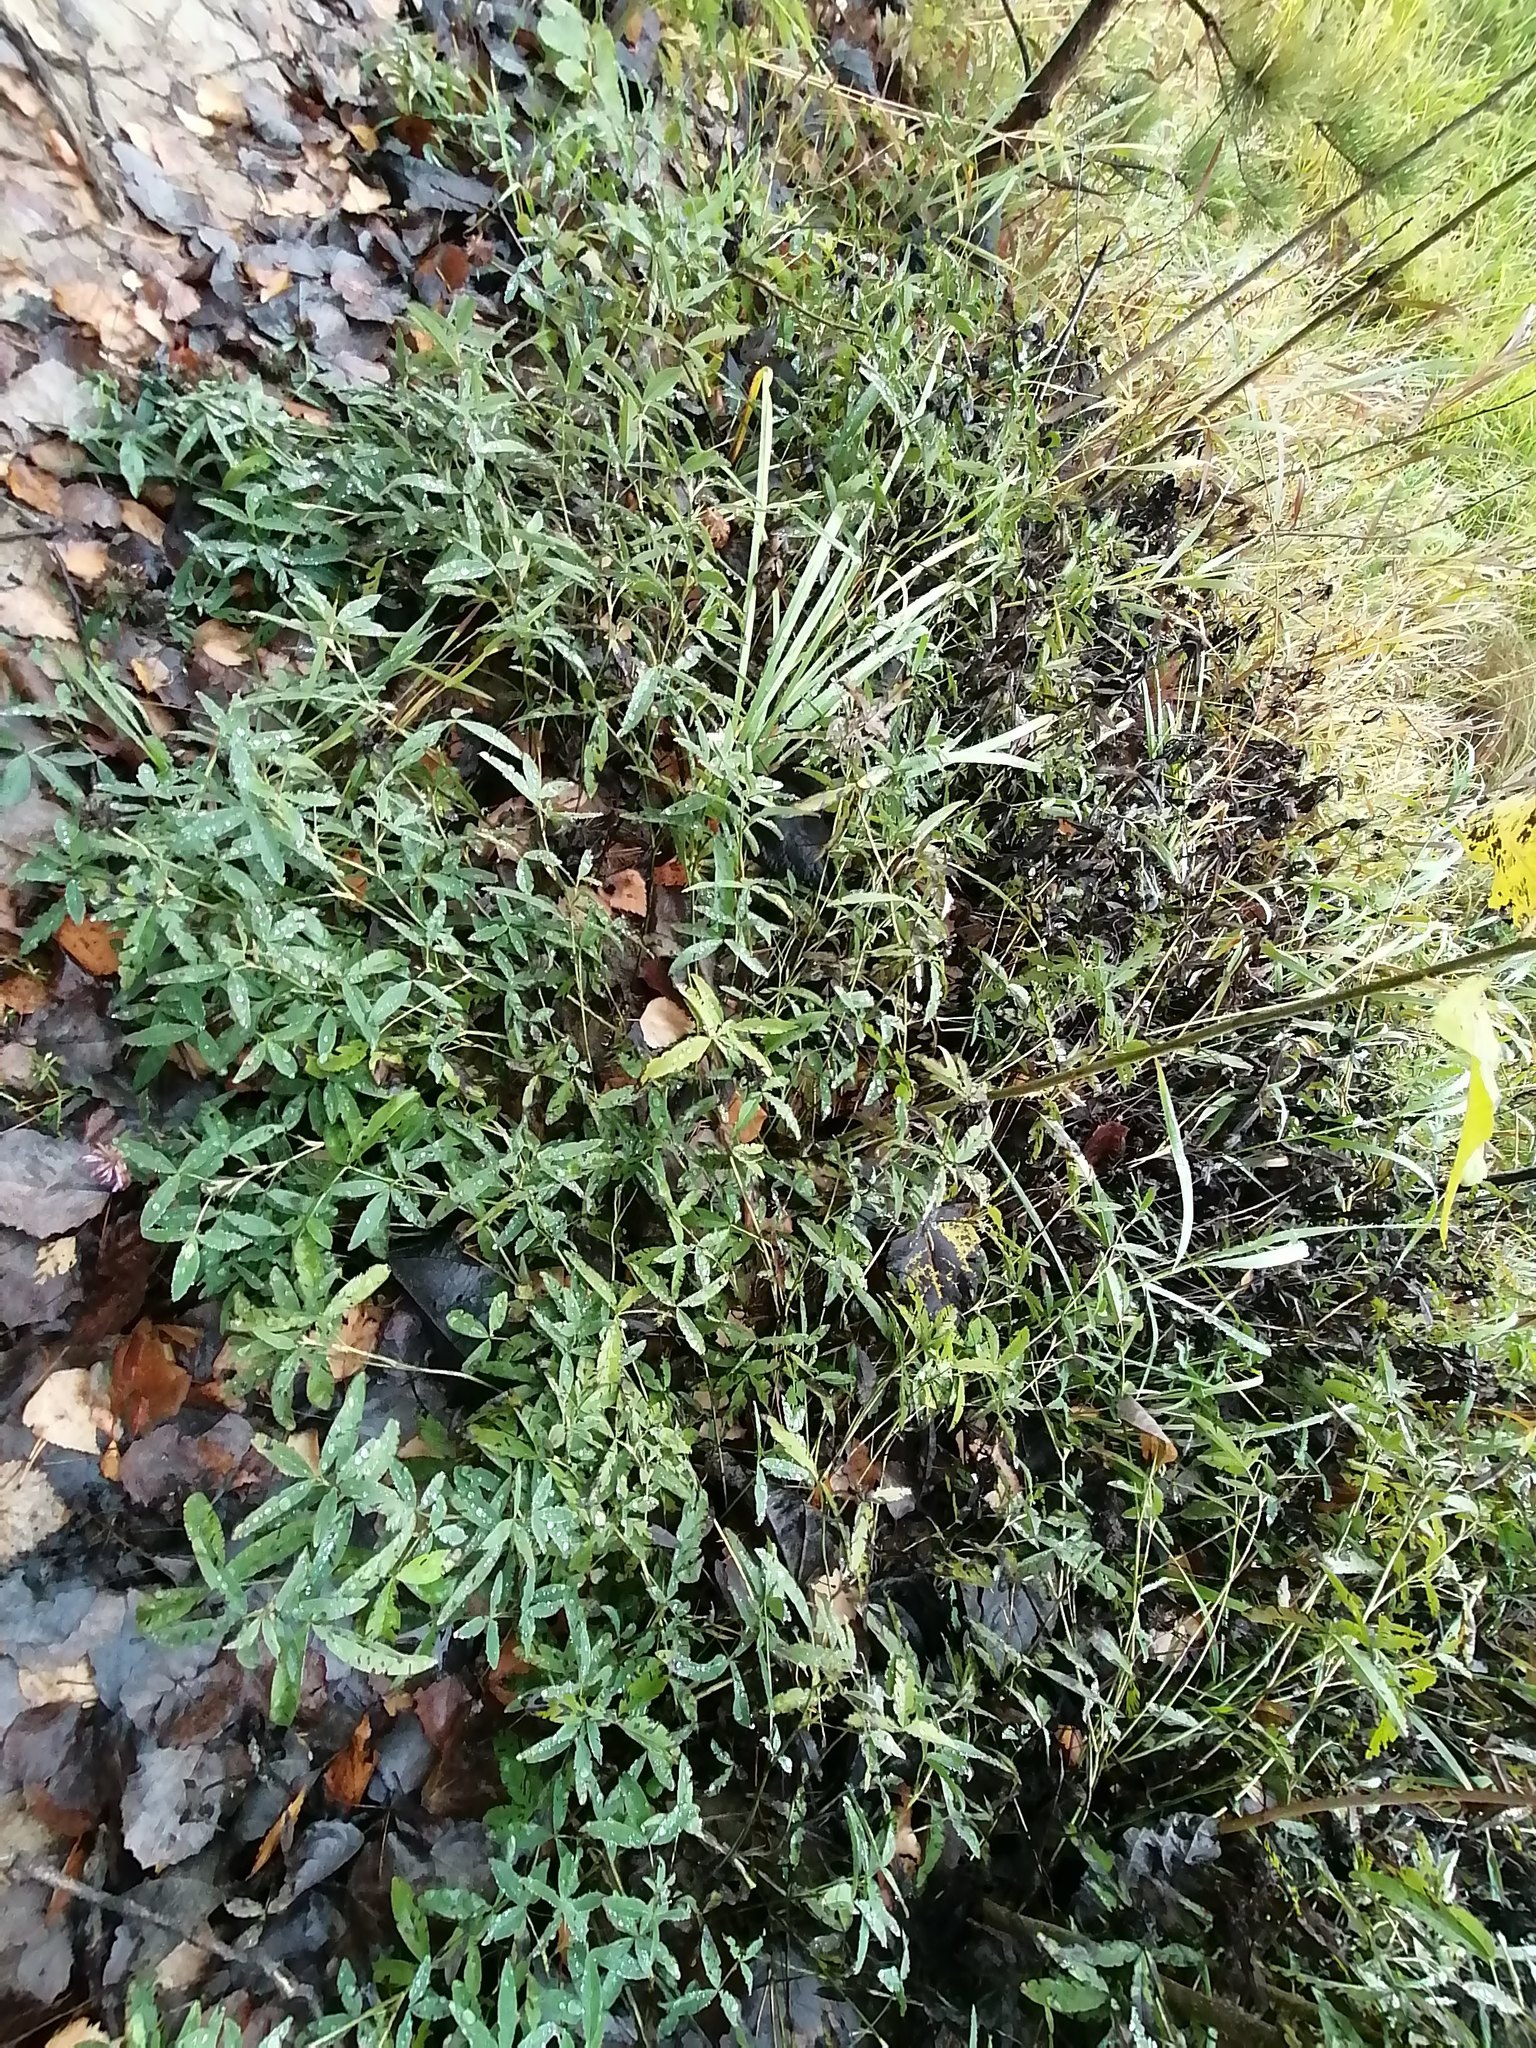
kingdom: Plantae
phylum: Tracheophyta
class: Magnoliopsida
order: Fabales
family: Fabaceae
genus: Trifolium
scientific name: Trifolium medium
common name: Zigzag clover
